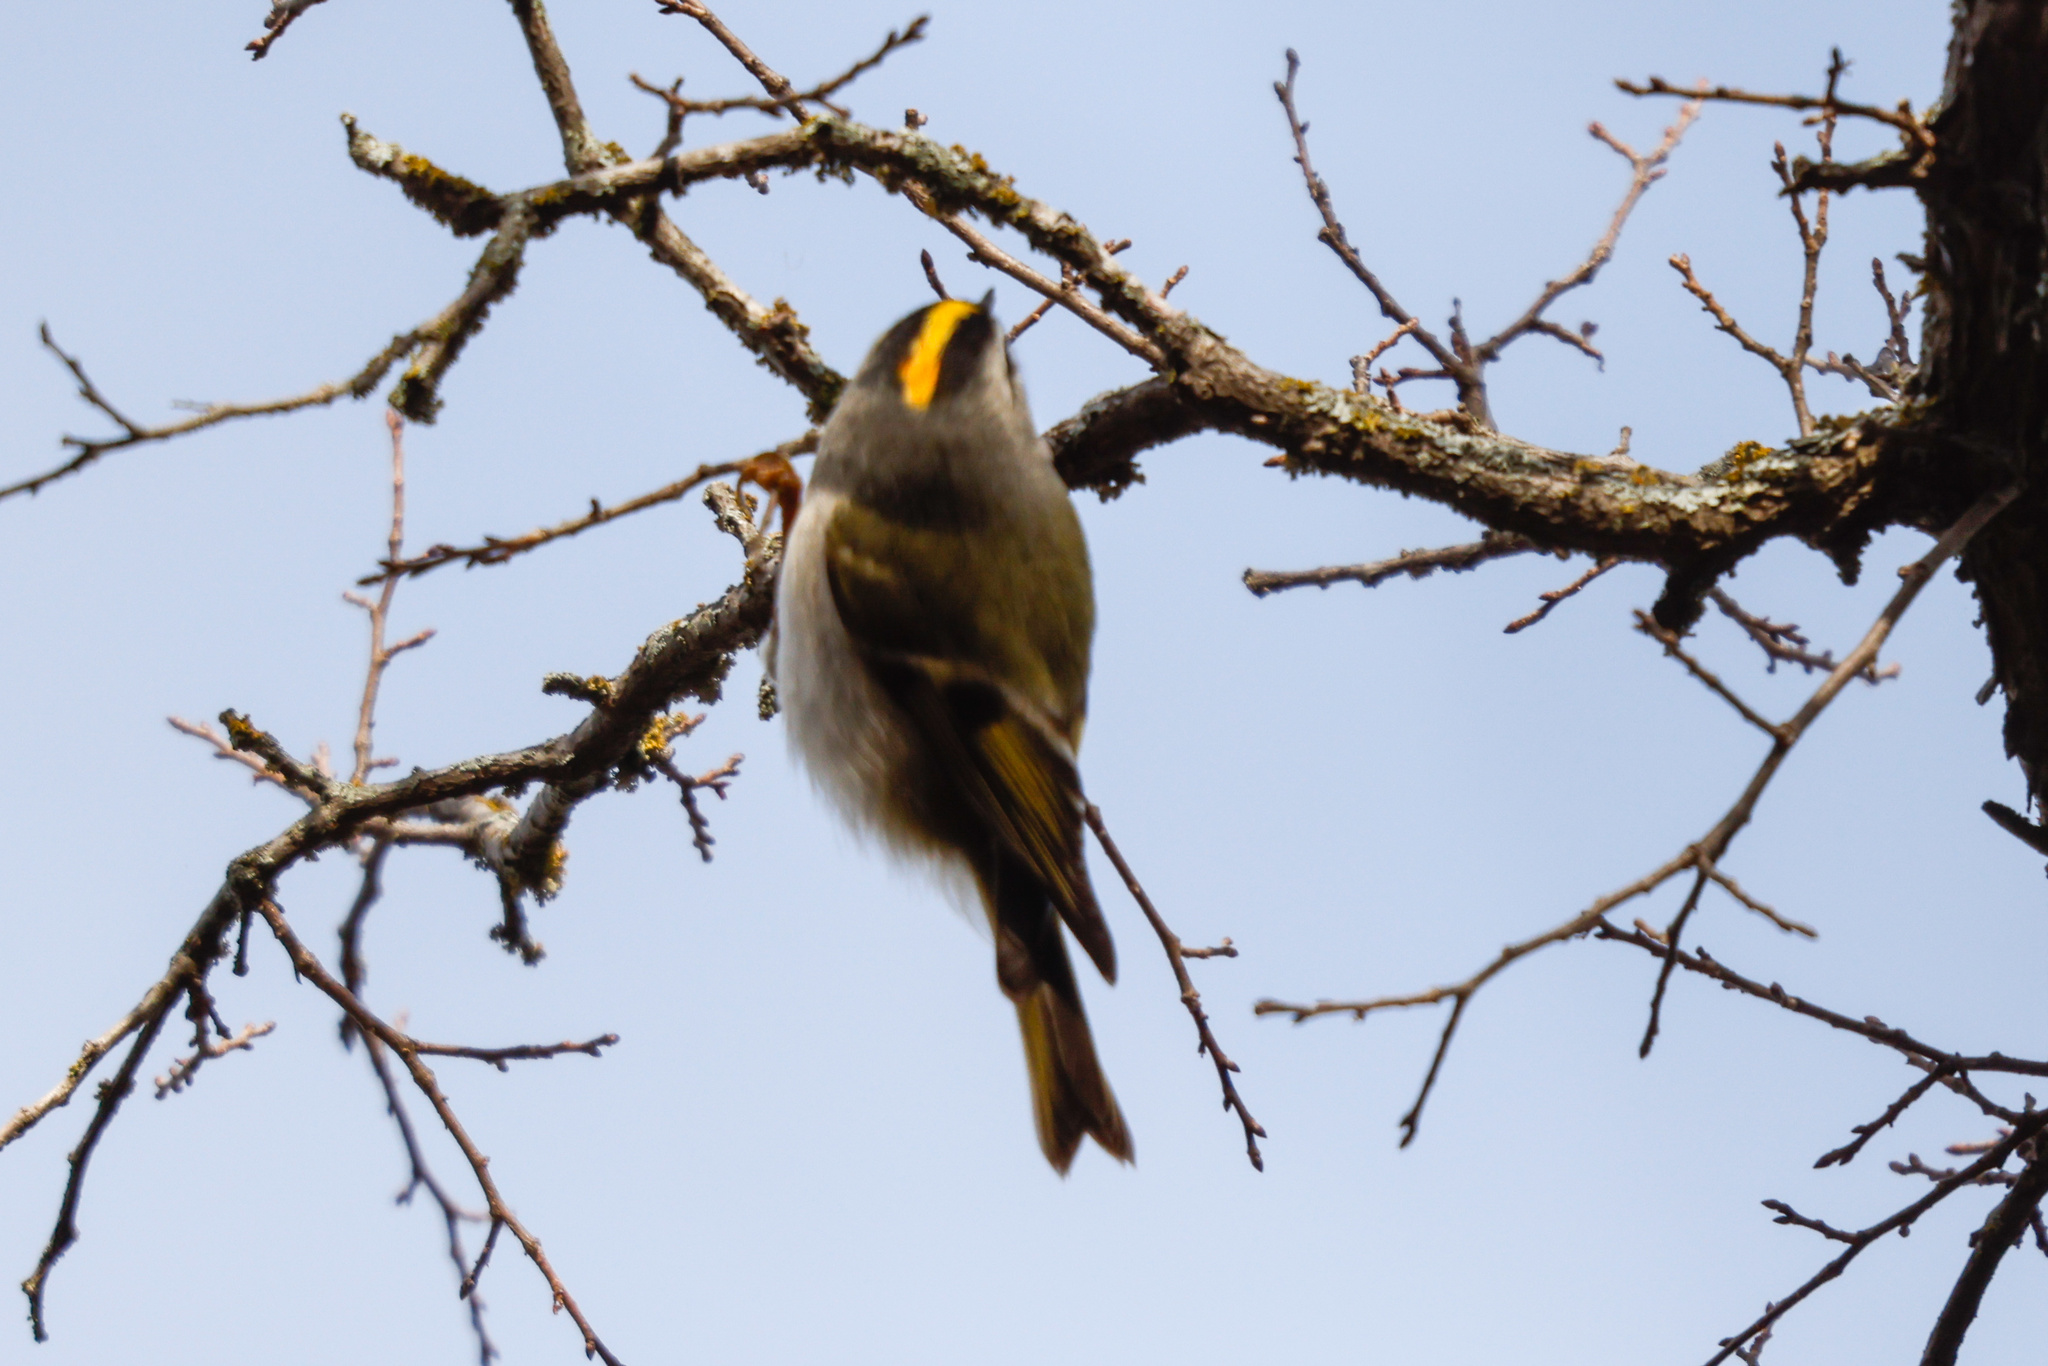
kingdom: Animalia
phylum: Chordata
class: Aves
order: Passeriformes
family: Regulidae
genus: Regulus
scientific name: Regulus satrapa
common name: Golden-crowned kinglet
